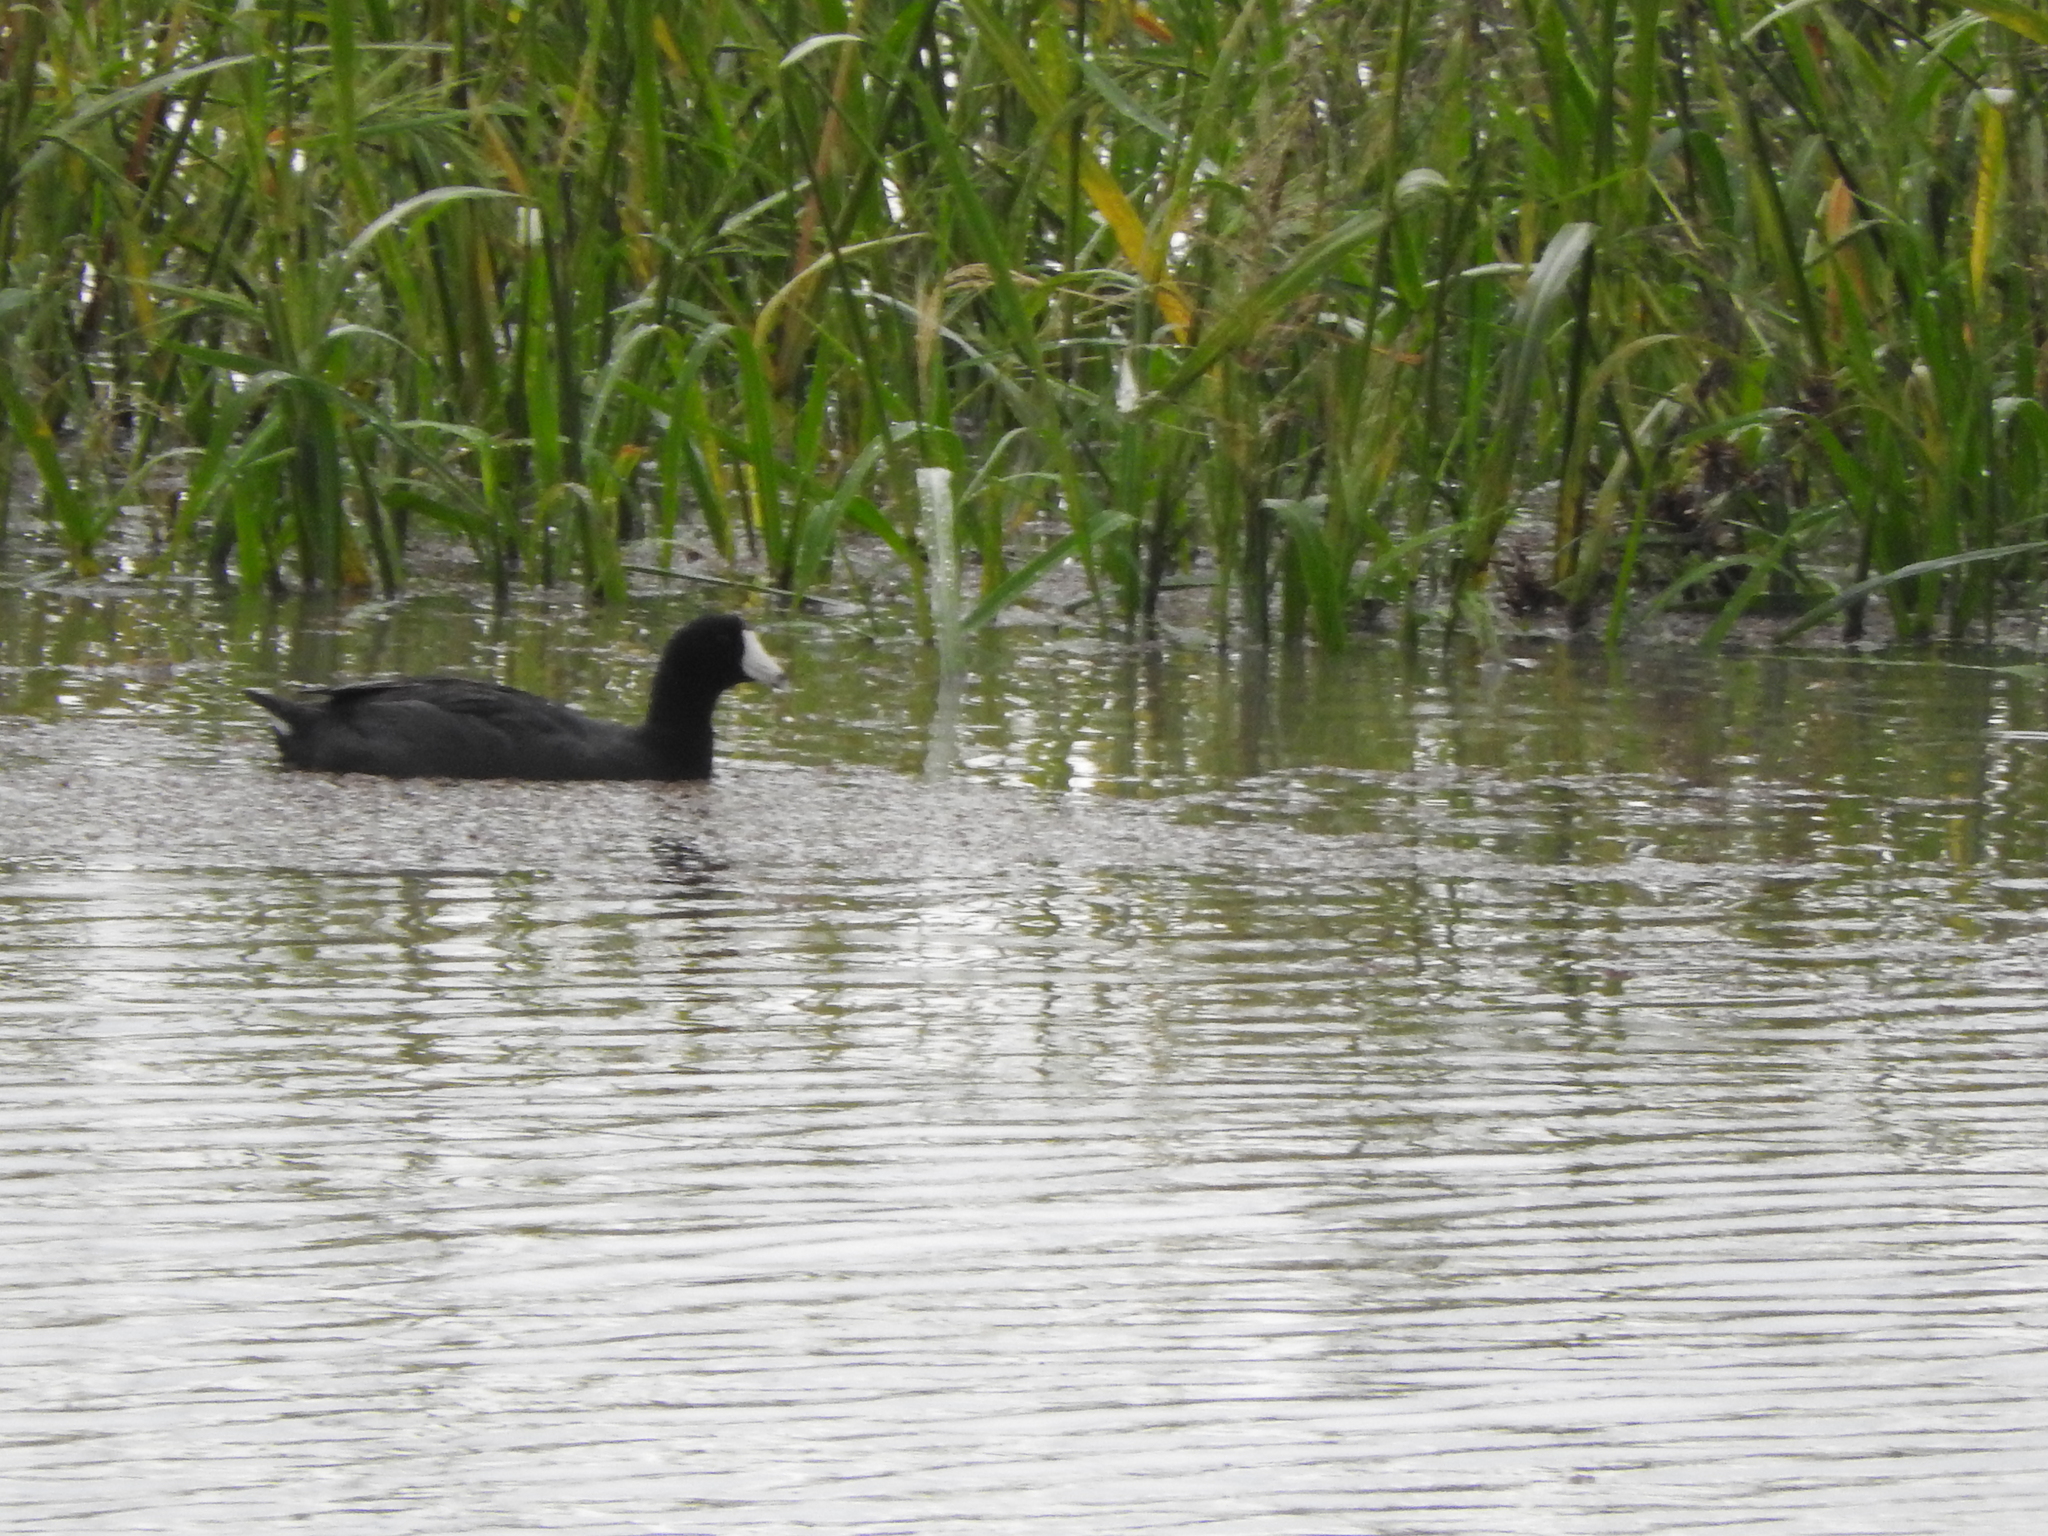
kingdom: Animalia
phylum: Chordata
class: Aves
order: Gruiformes
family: Rallidae
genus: Fulica
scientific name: Fulica americana
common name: American coot
